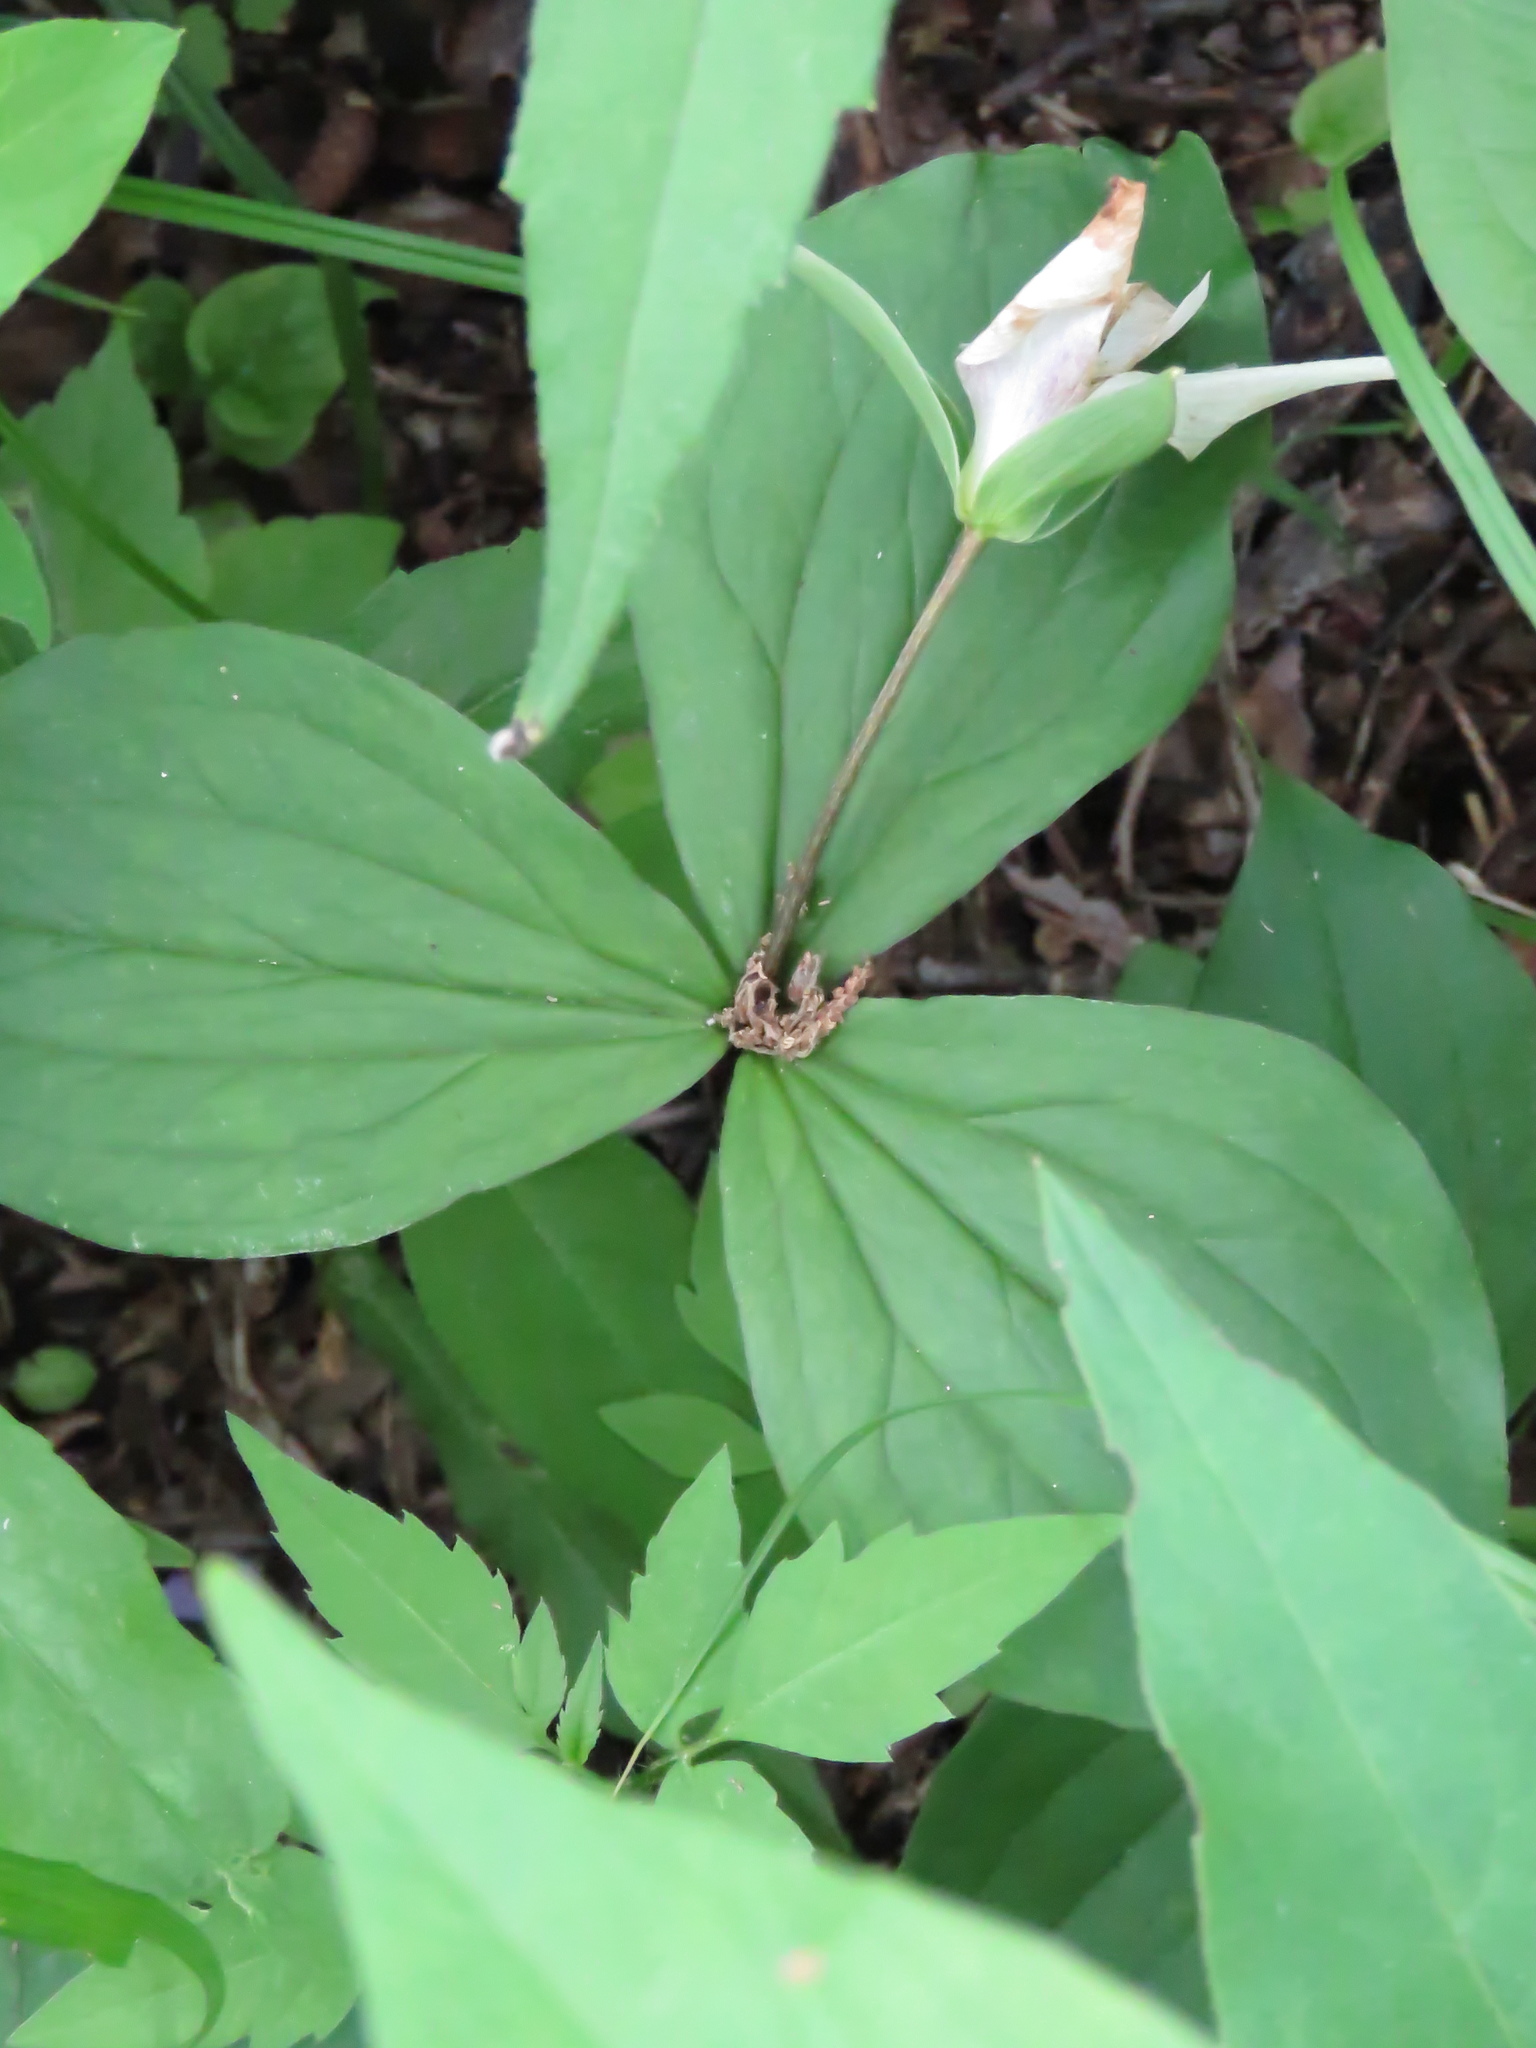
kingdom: Plantae
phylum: Tracheophyta
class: Liliopsida
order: Liliales
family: Melanthiaceae
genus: Trillium
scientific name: Trillium grandiflorum
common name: Great white trillium
